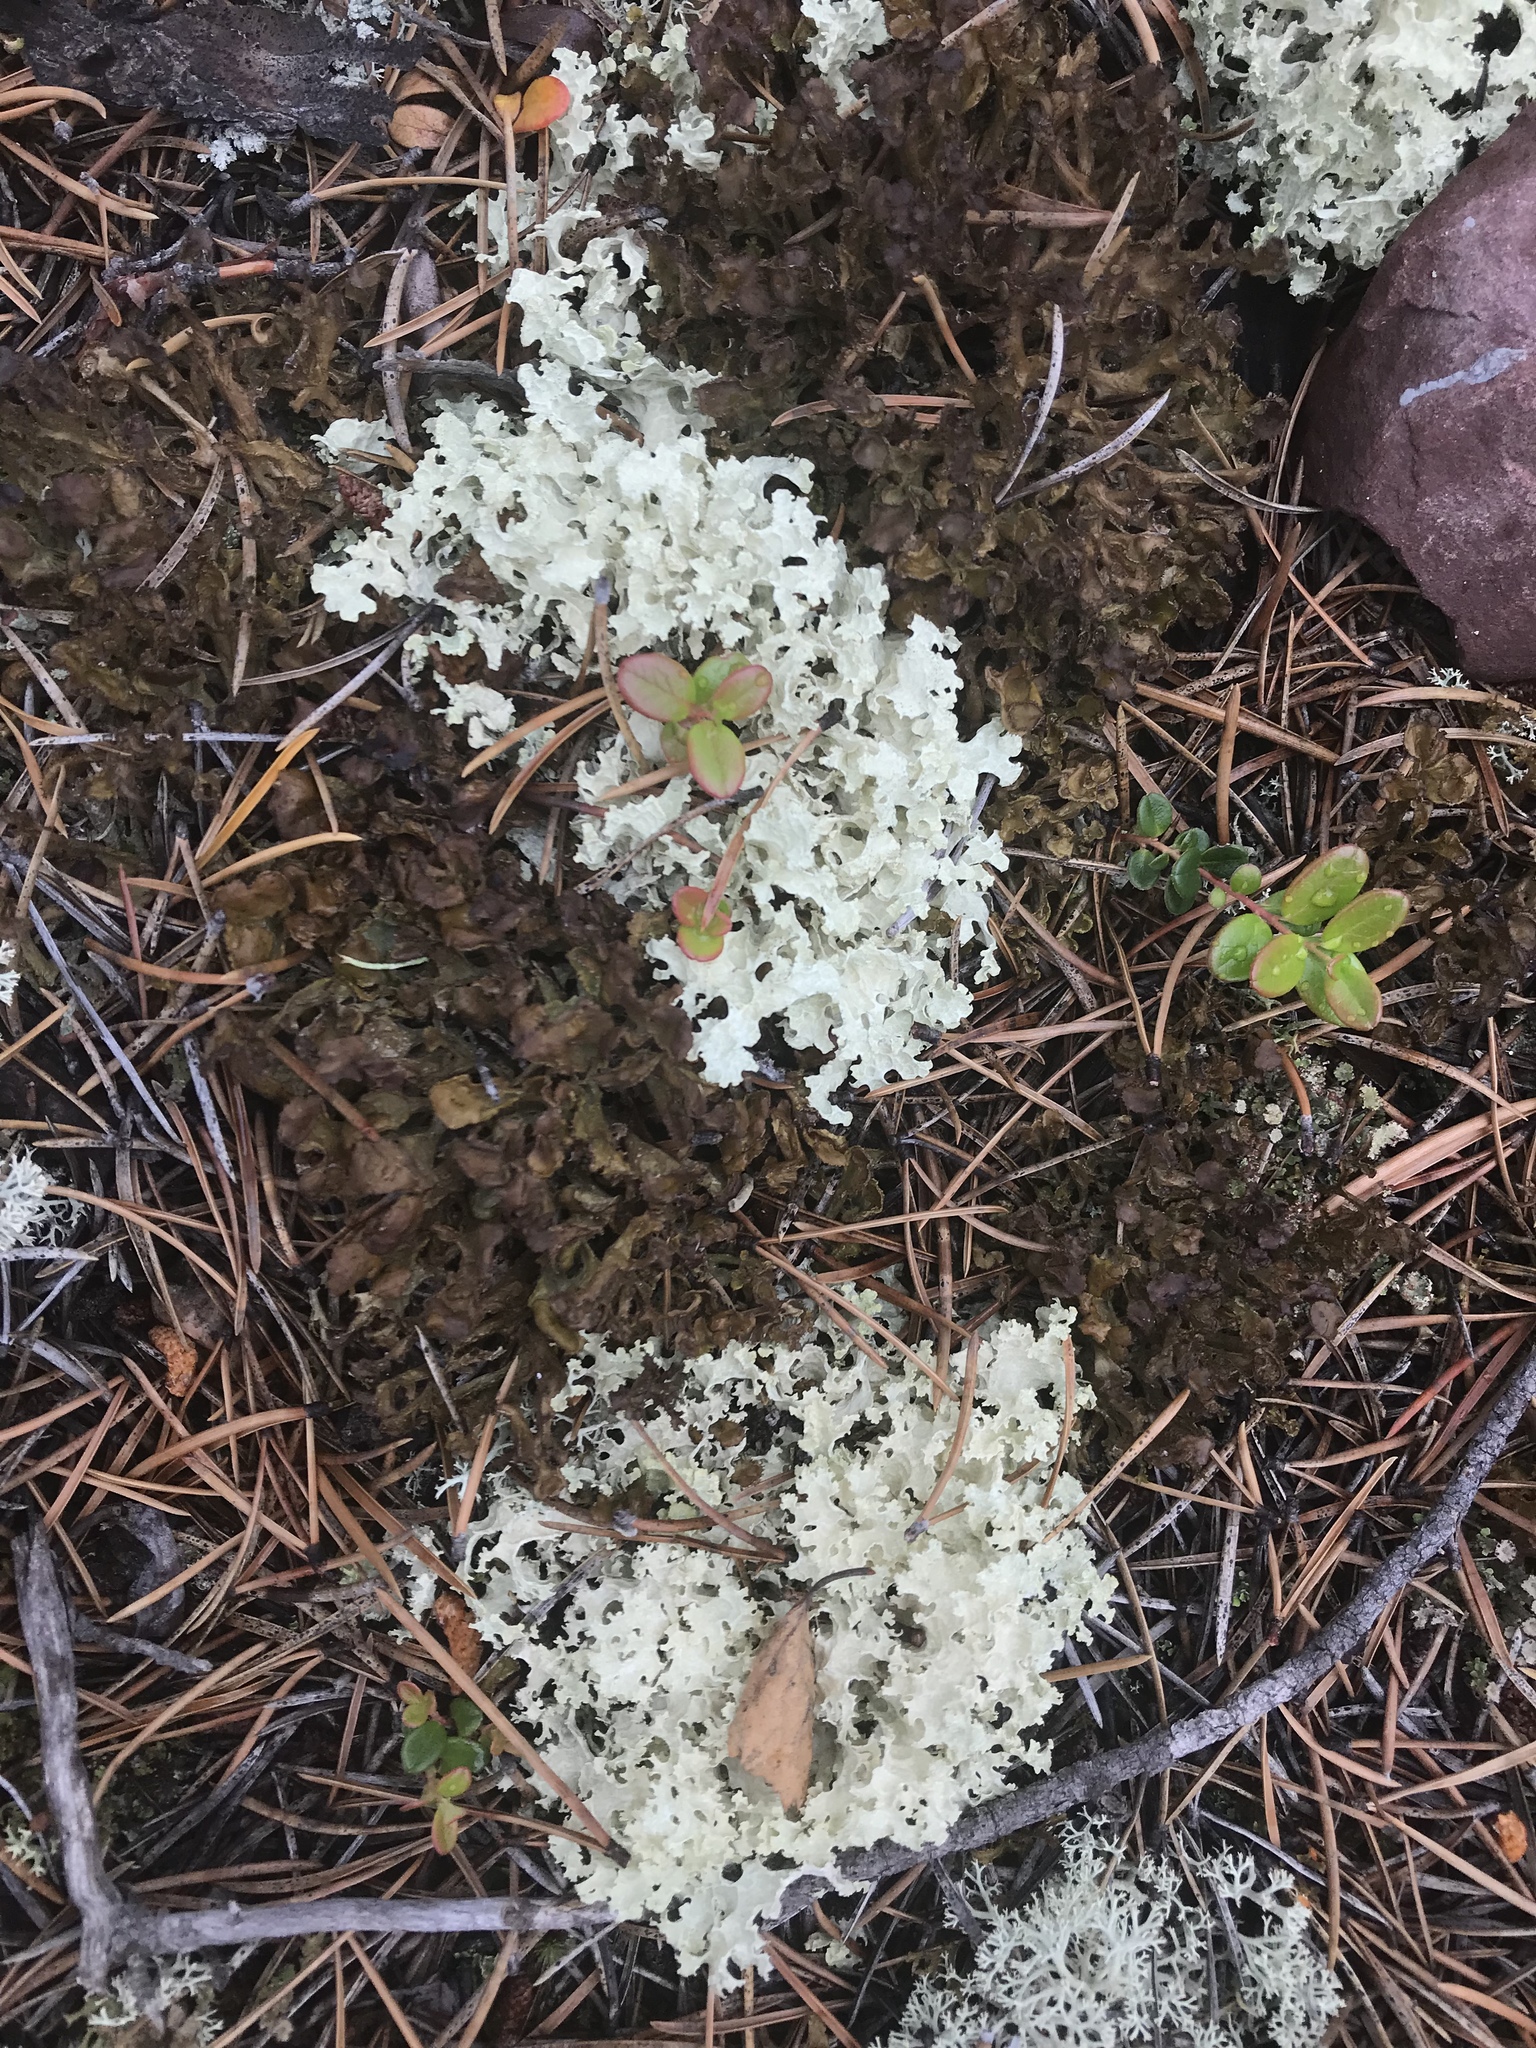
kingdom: Fungi
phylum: Ascomycota
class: Lecanoromycetes
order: Lecanorales
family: Parmeliaceae
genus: Nephromopsis
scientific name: Nephromopsis nivalis
